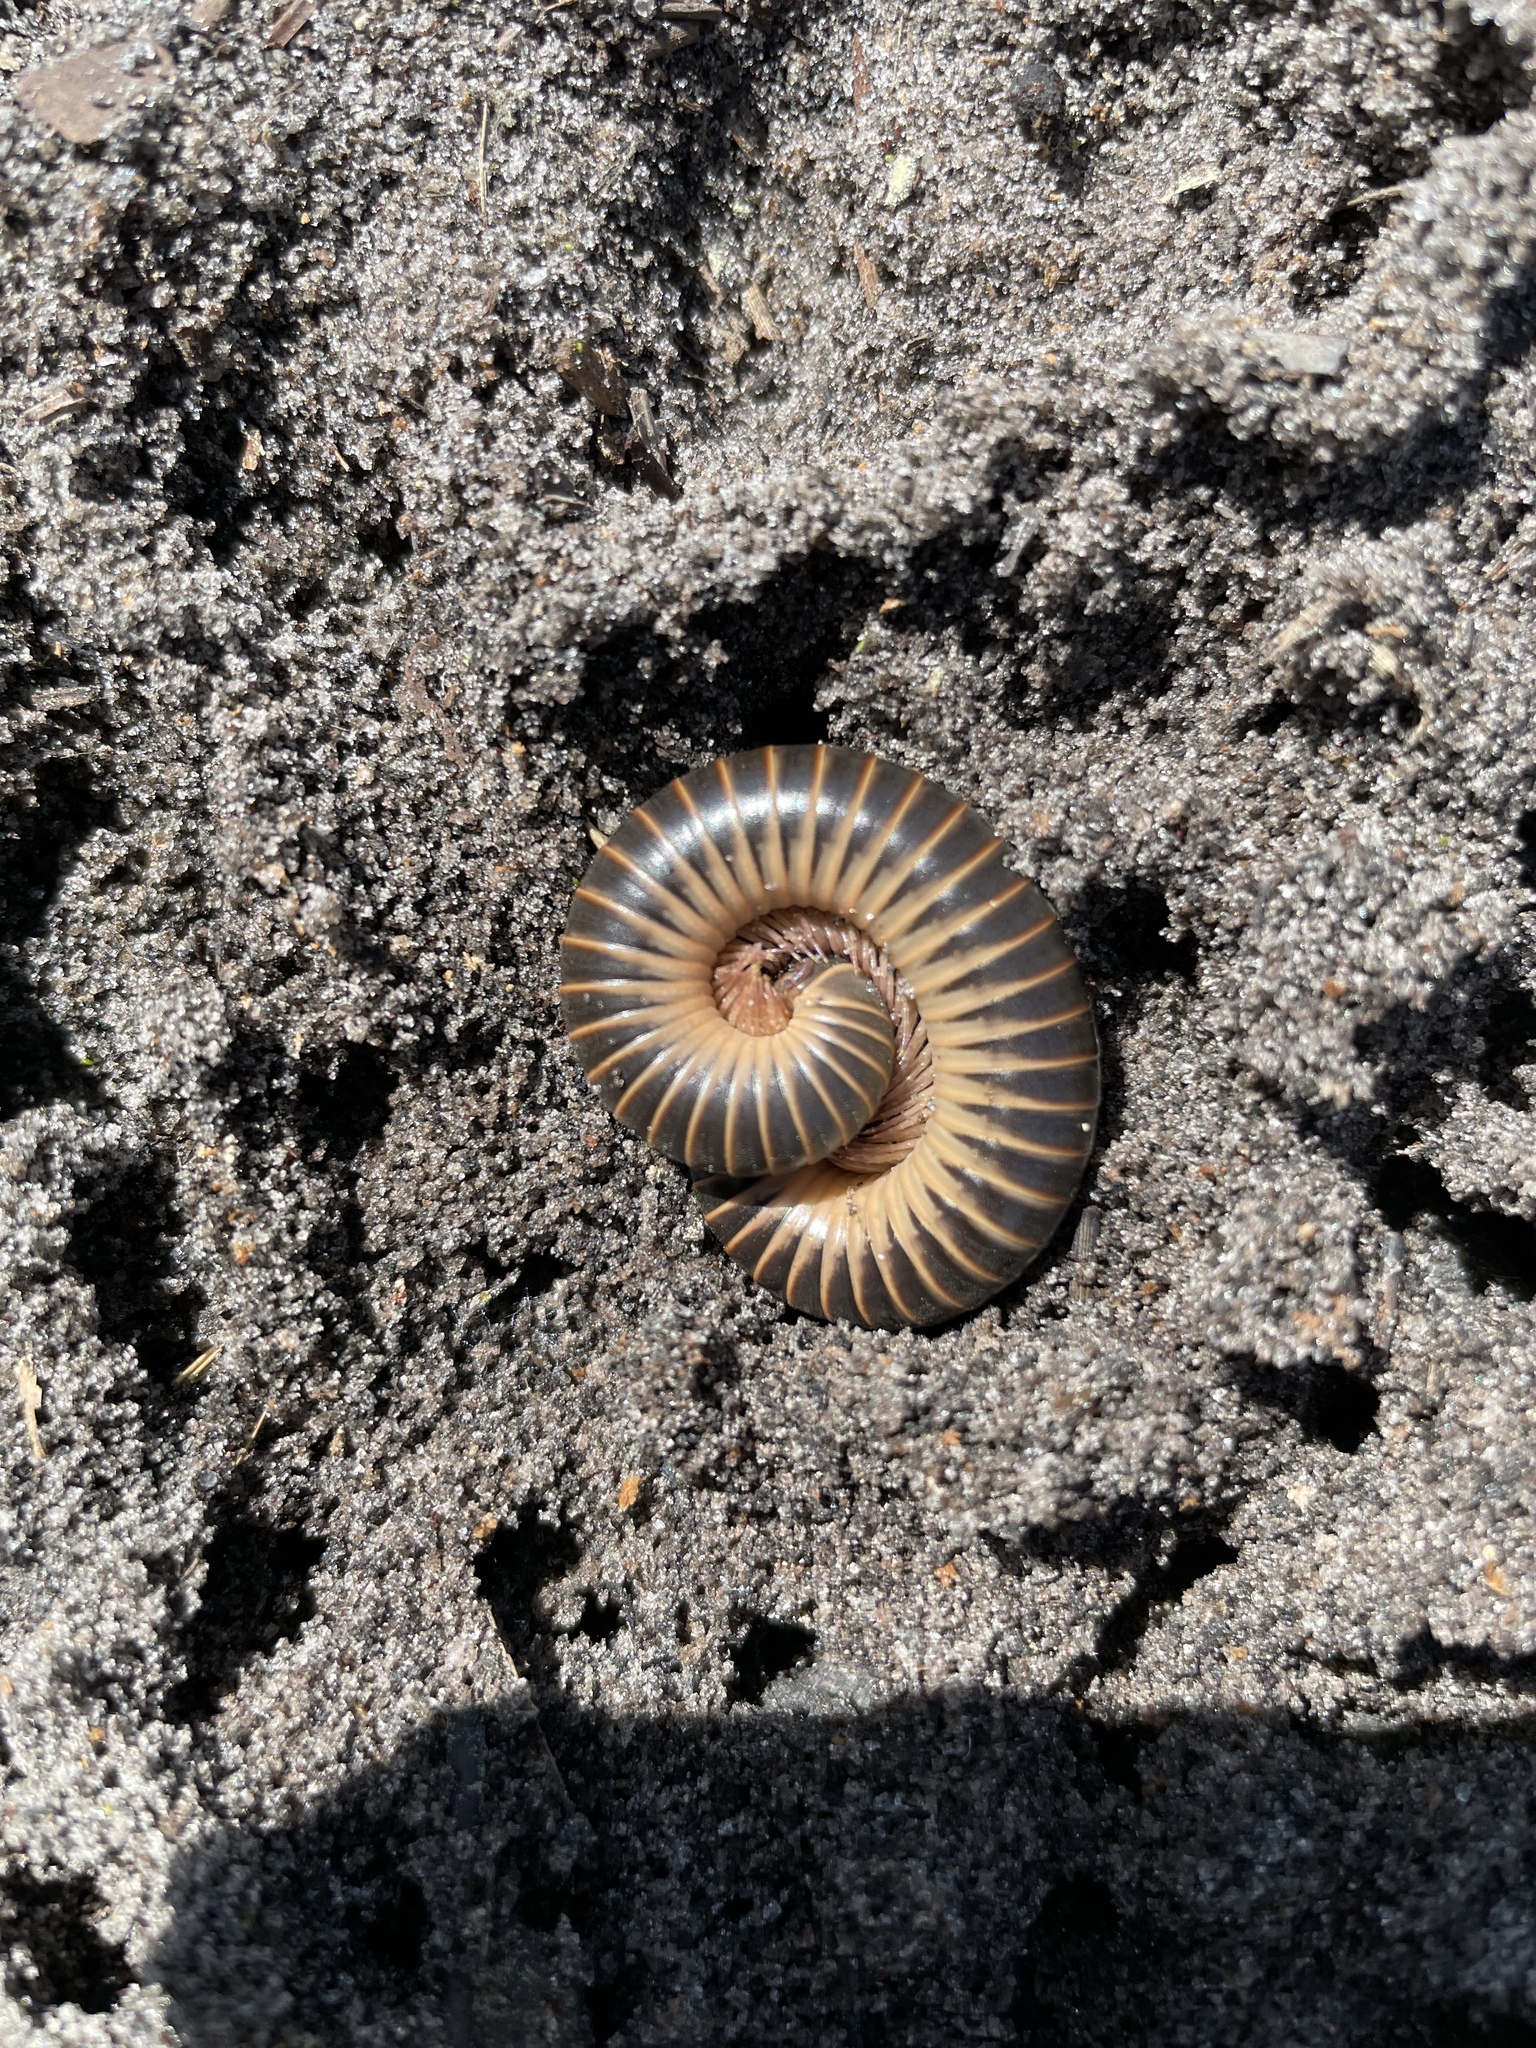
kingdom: Animalia
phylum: Arthropoda
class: Diplopoda
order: Spirobolida
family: Spirobolidae
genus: Chicobolus
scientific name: Chicobolus spinigerus
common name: Florida ivory millipede
